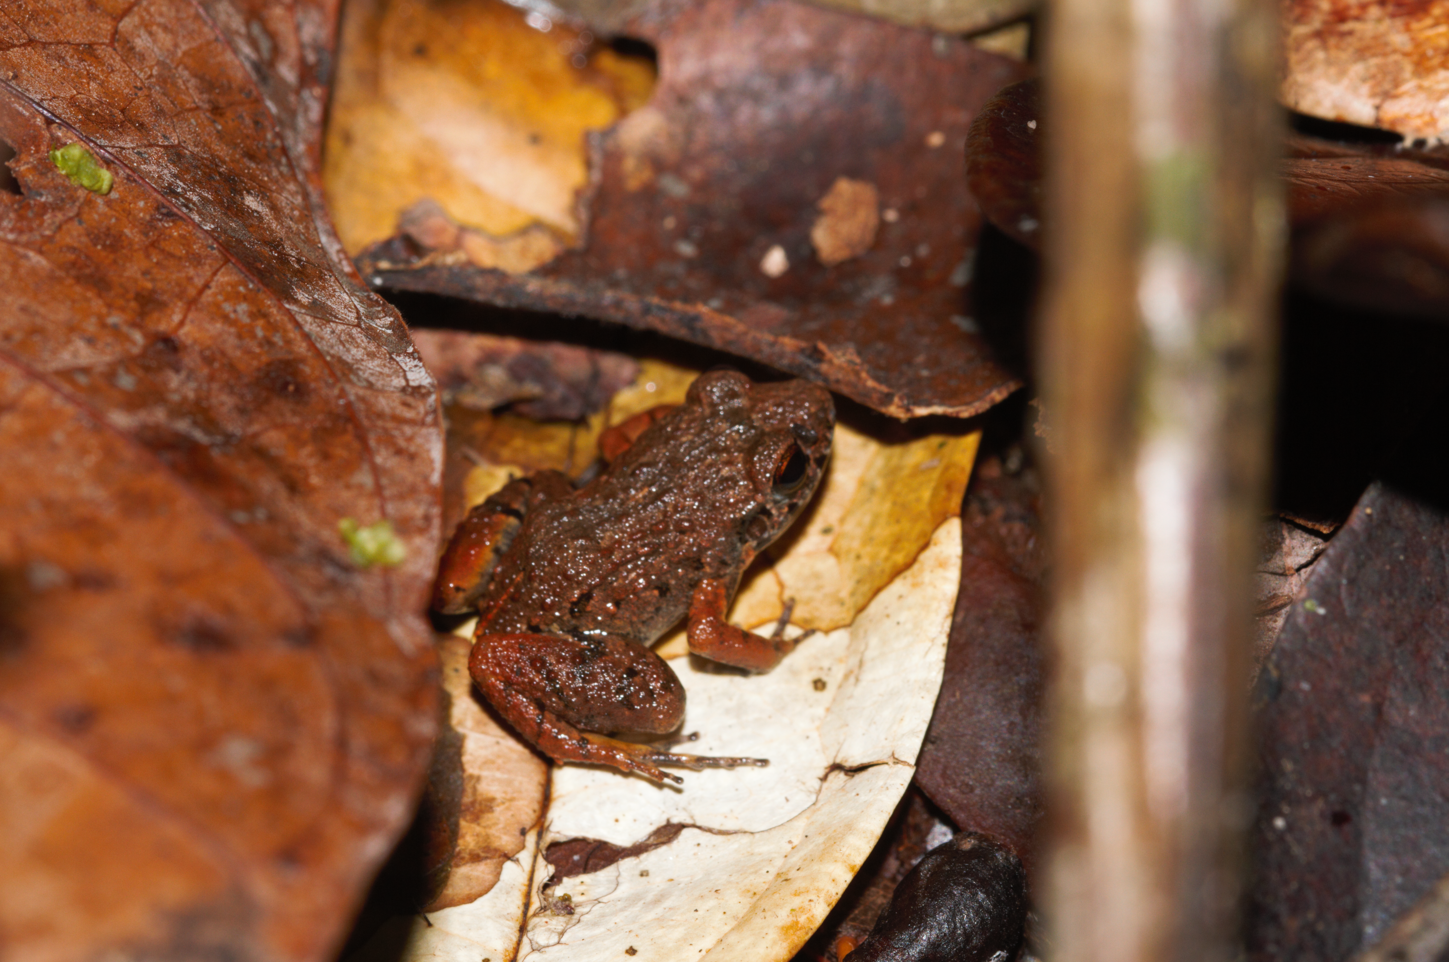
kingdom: Animalia
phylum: Chordata
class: Amphibia
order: Anura
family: Leptodactylidae
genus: Adenomera
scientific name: Adenomera andreae
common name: Lowland tropical bullfrog
